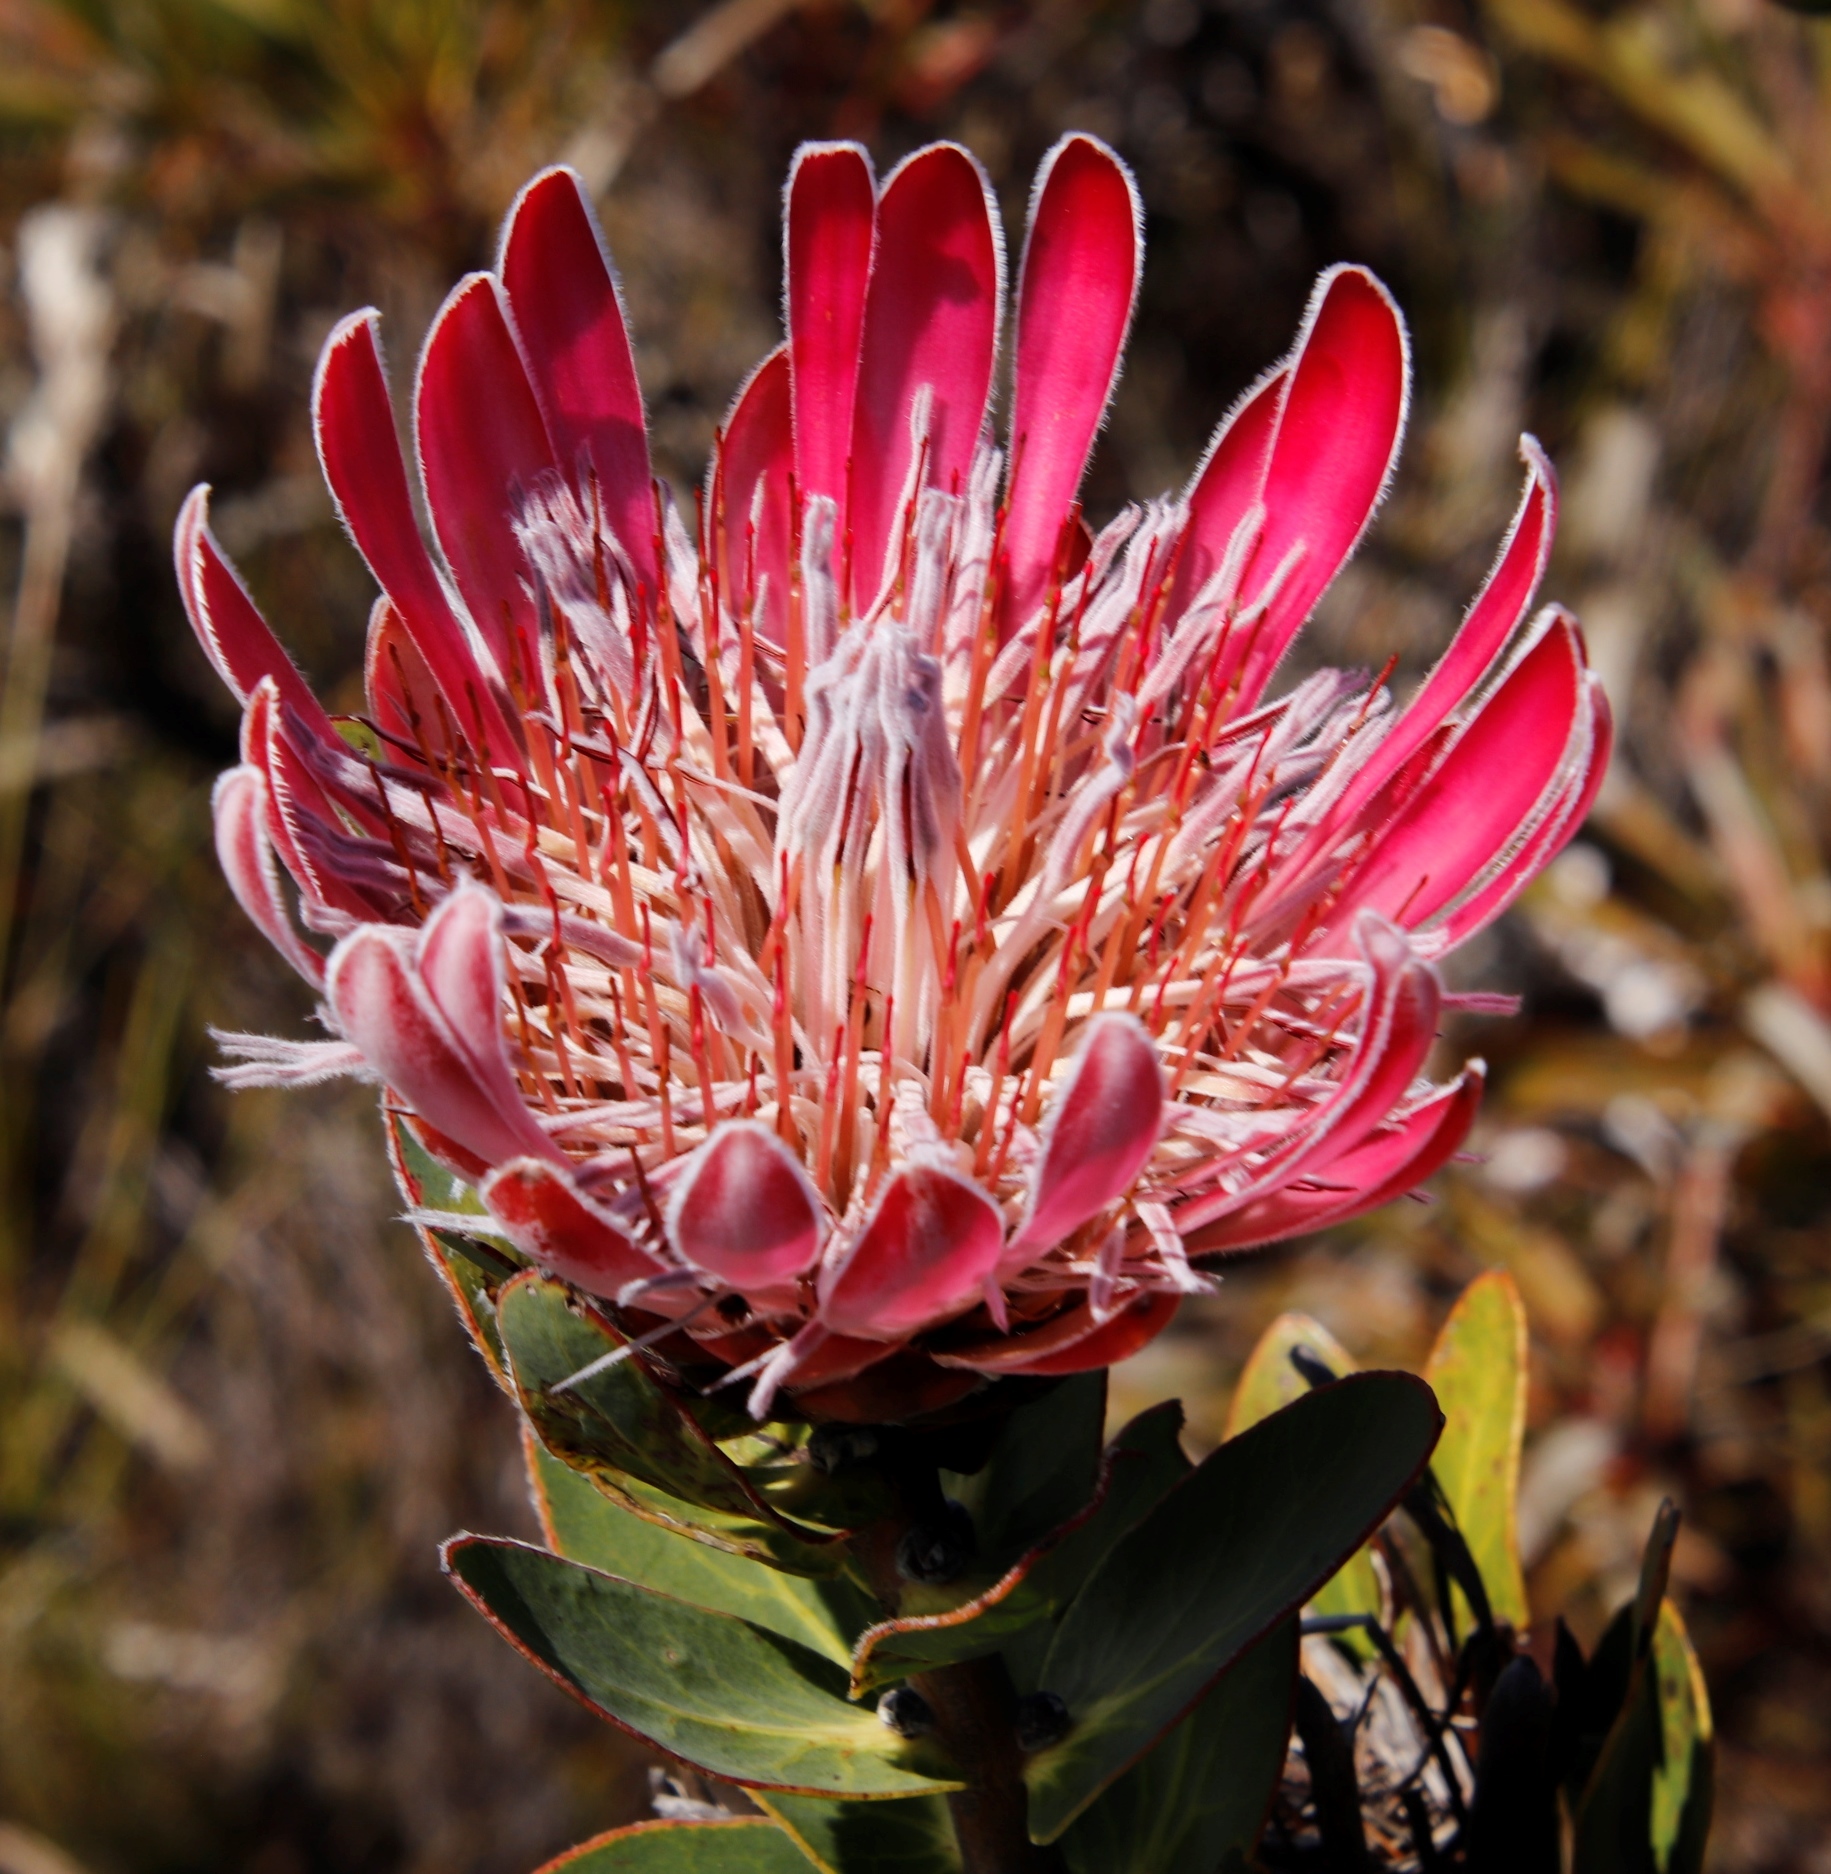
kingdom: Plantae
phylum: Tracheophyta
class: Magnoliopsida
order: Proteales
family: Proteaceae
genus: Protea
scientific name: Protea compacta
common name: Bot river protea
